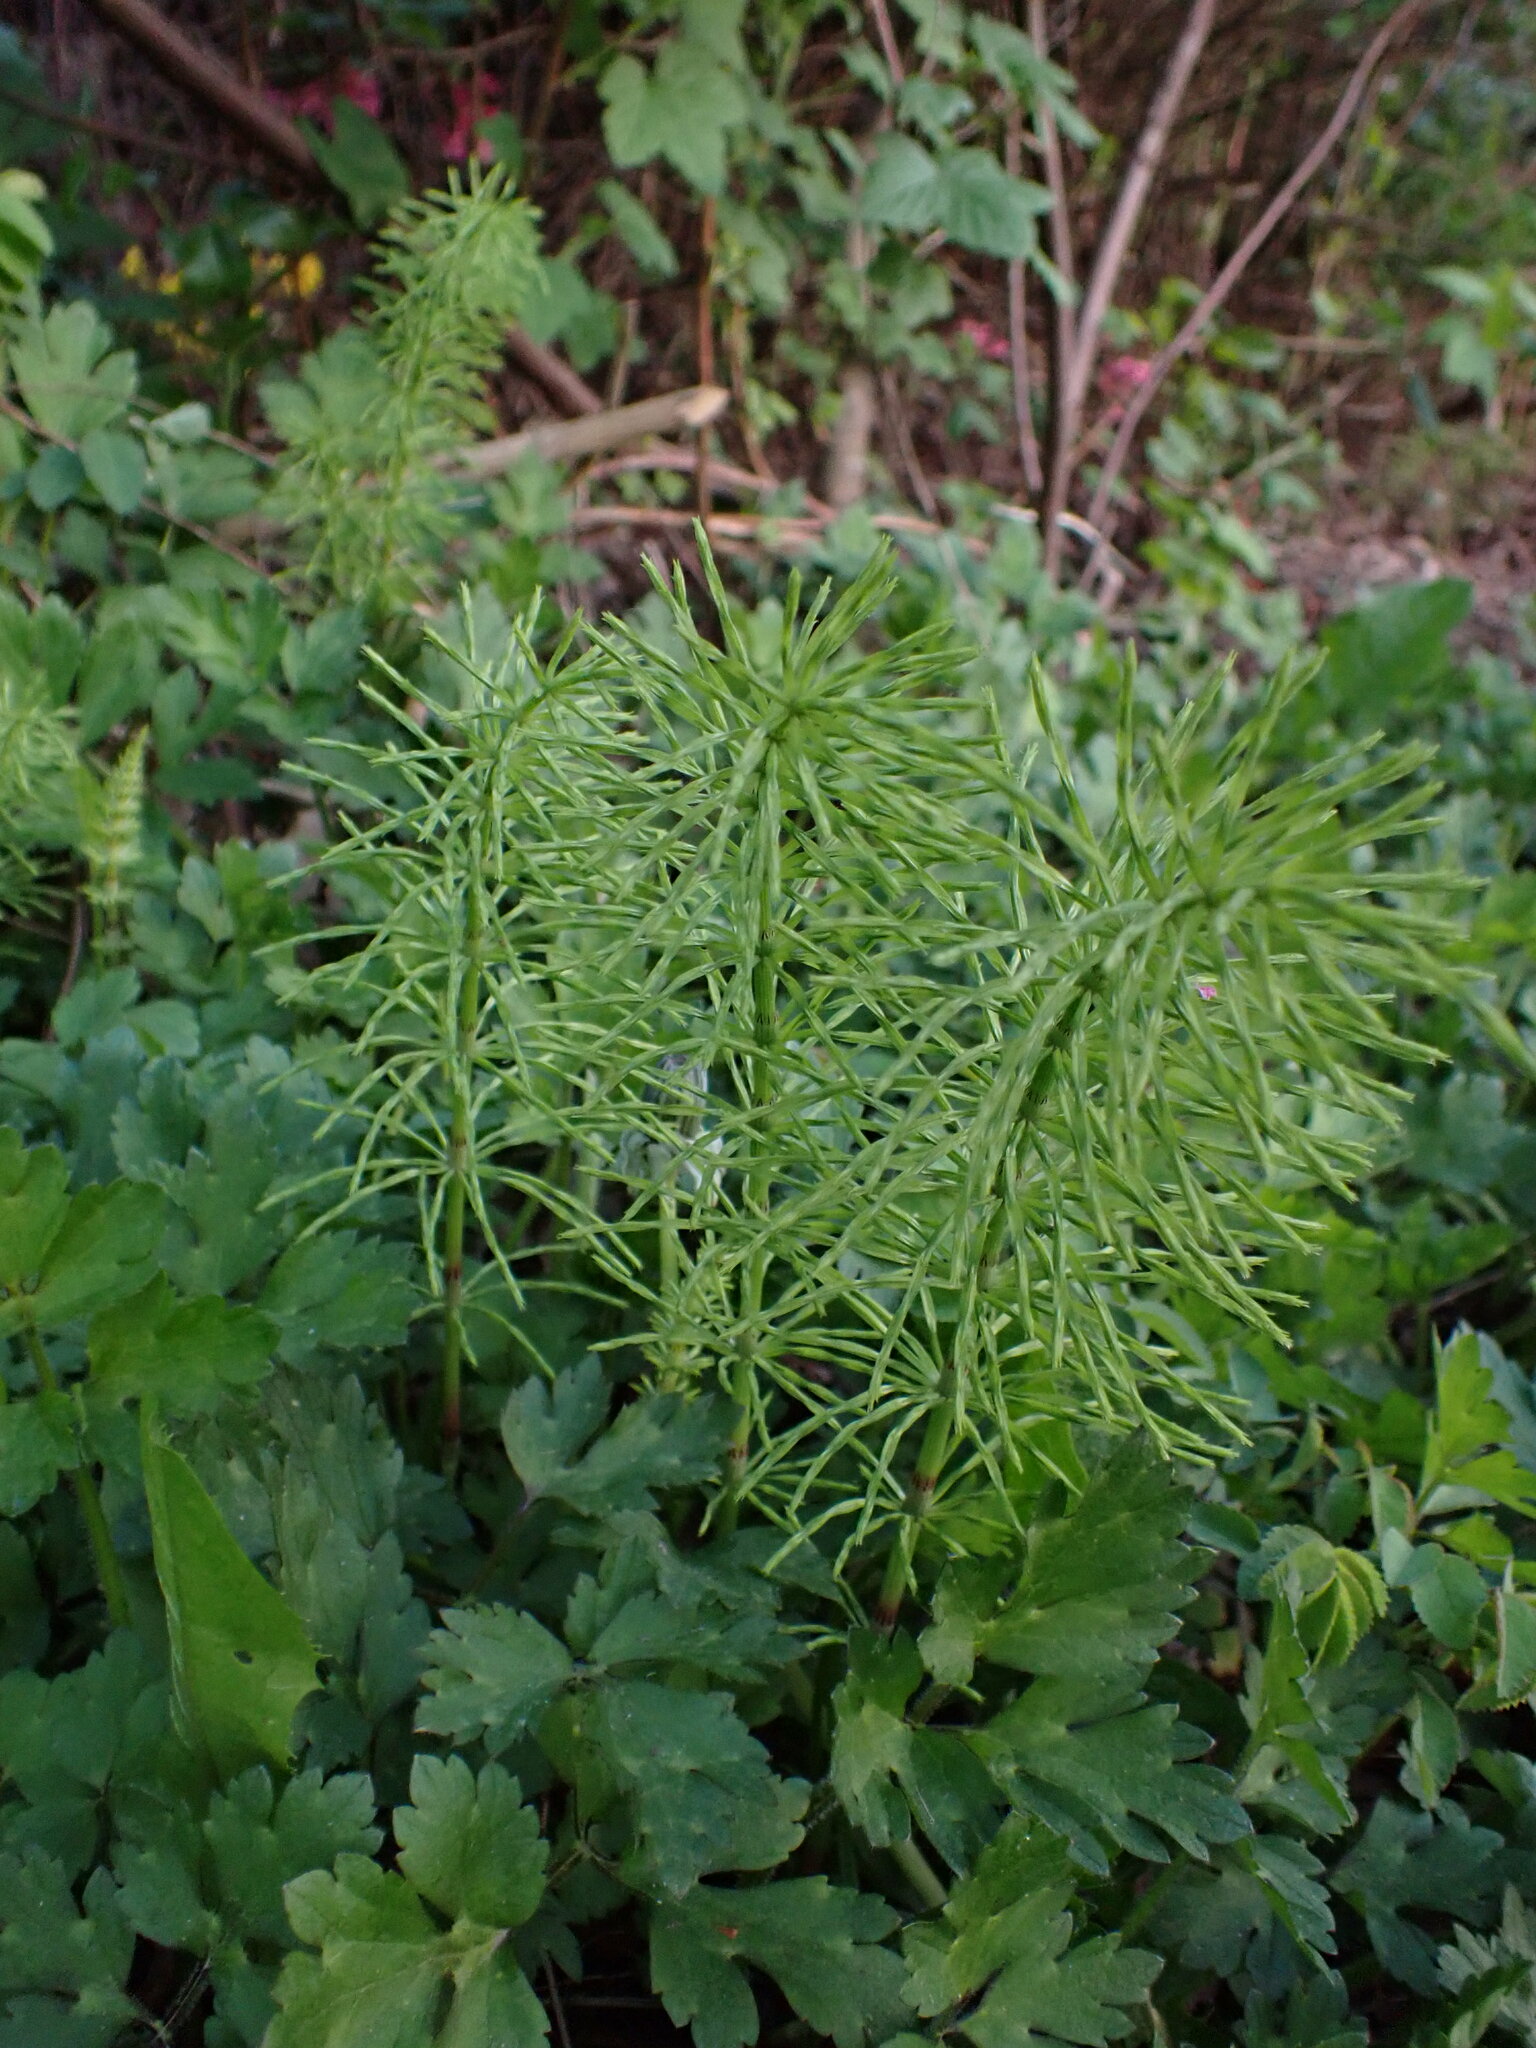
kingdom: Plantae
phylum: Tracheophyta
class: Polypodiopsida
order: Equisetales
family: Equisetaceae
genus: Equisetum
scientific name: Equisetum arvense
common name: Field horsetail
